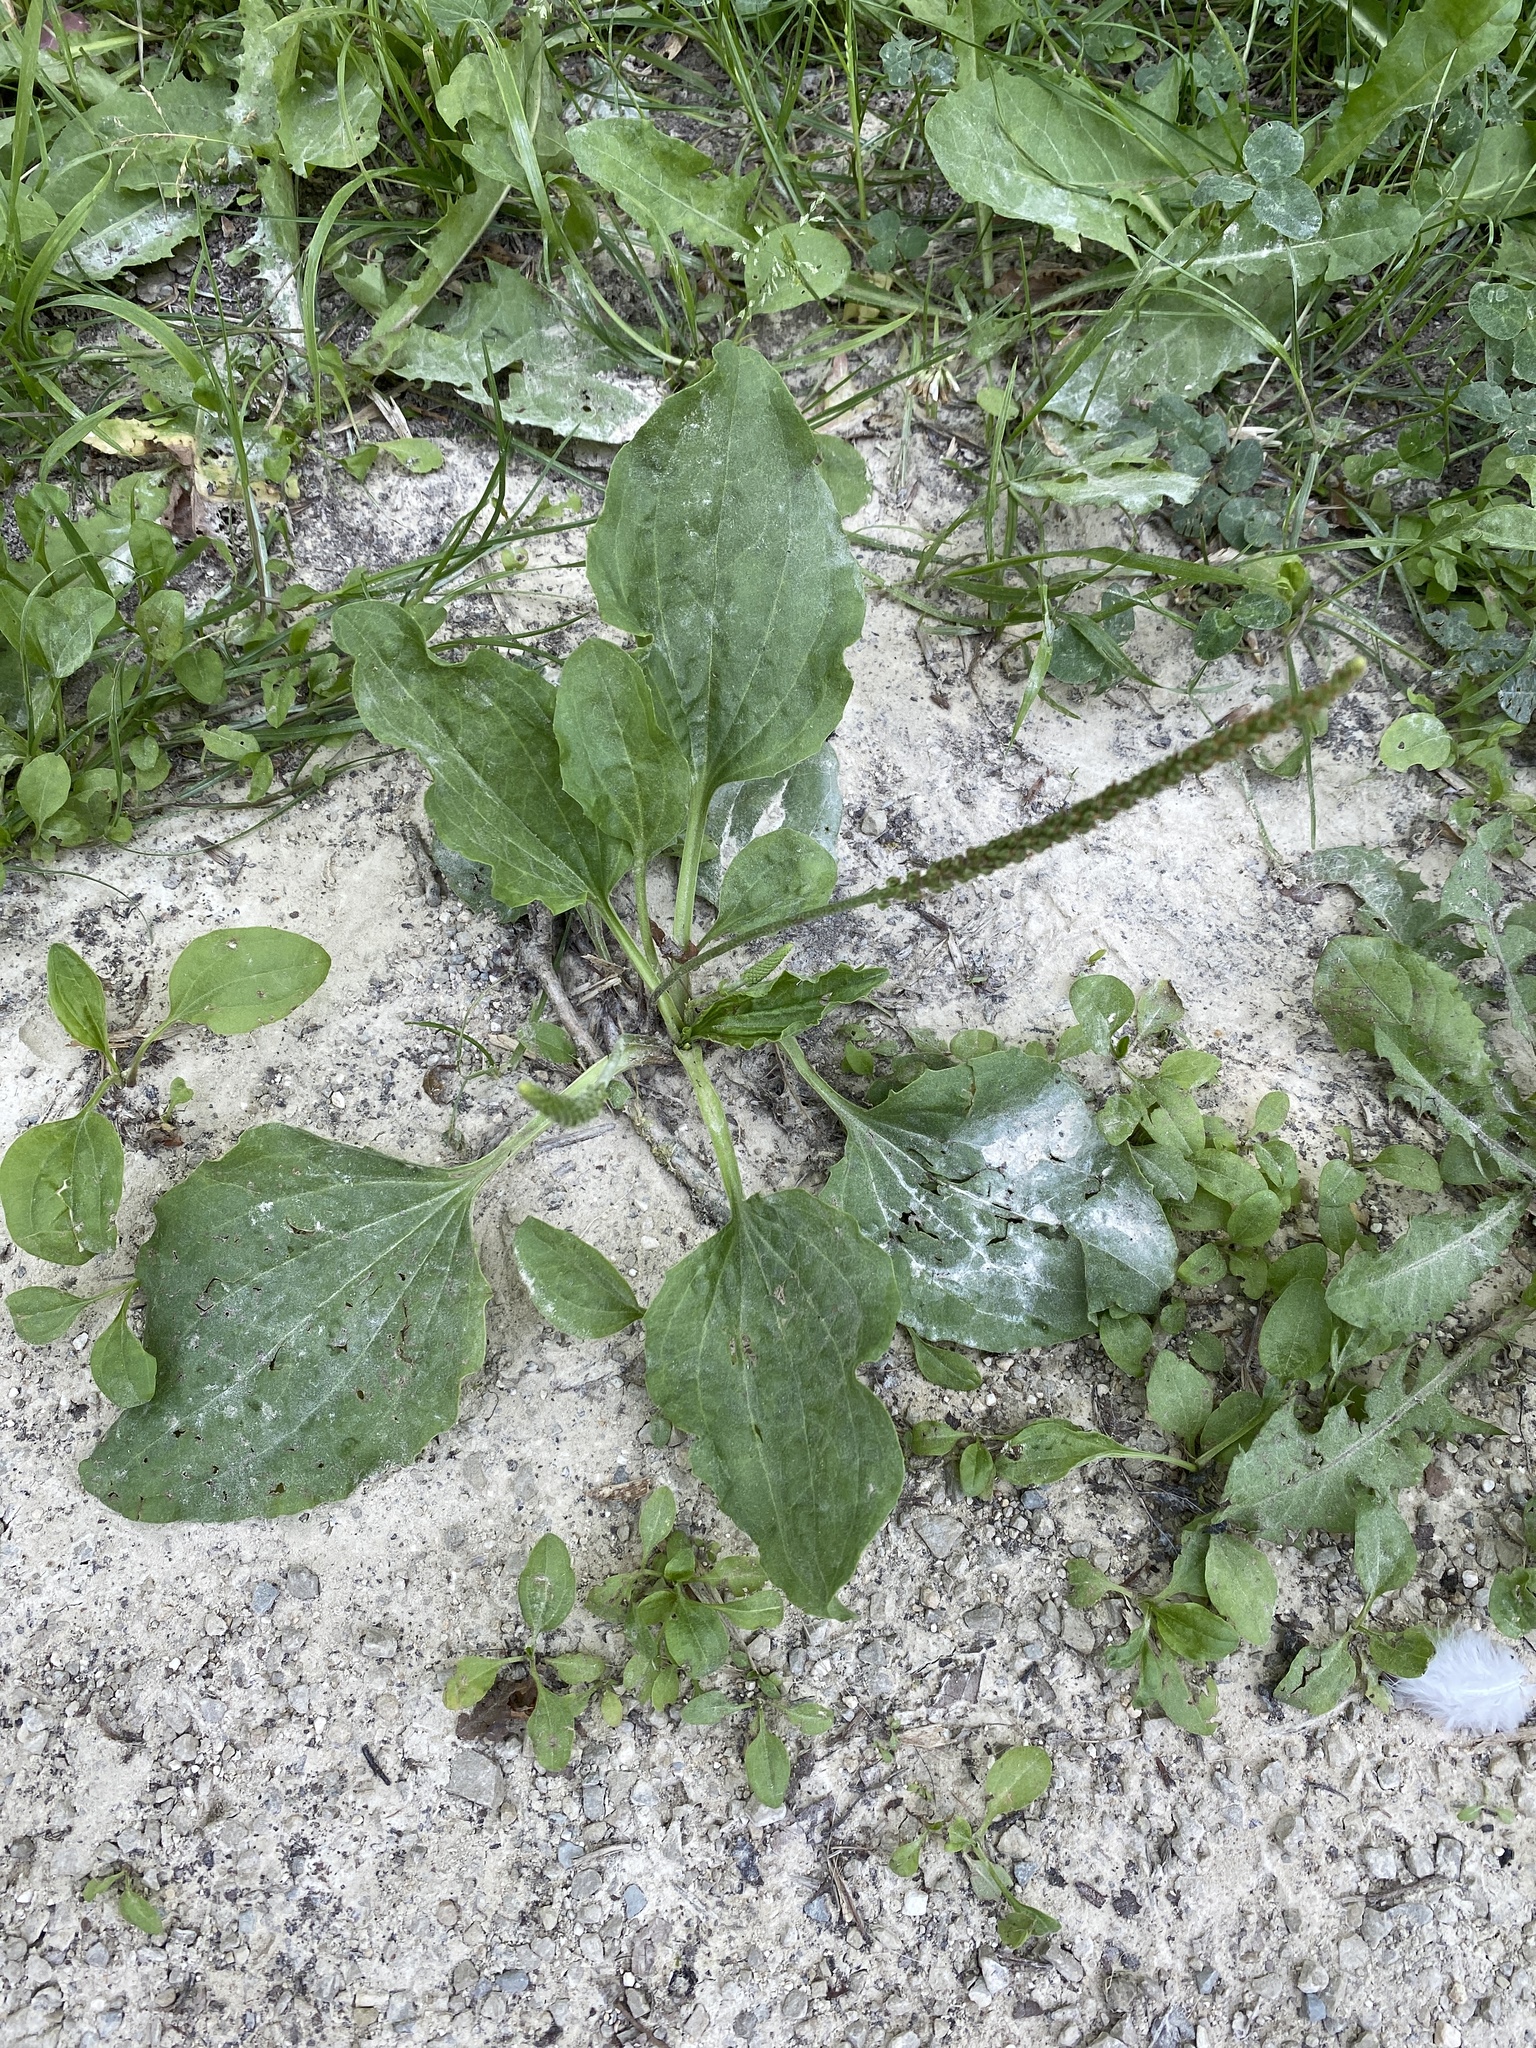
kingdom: Plantae
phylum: Tracheophyta
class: Magnoliopsida
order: Lamiales
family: Plantaginaceae
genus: Plantago
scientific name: Plantago major
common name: Common plantain
